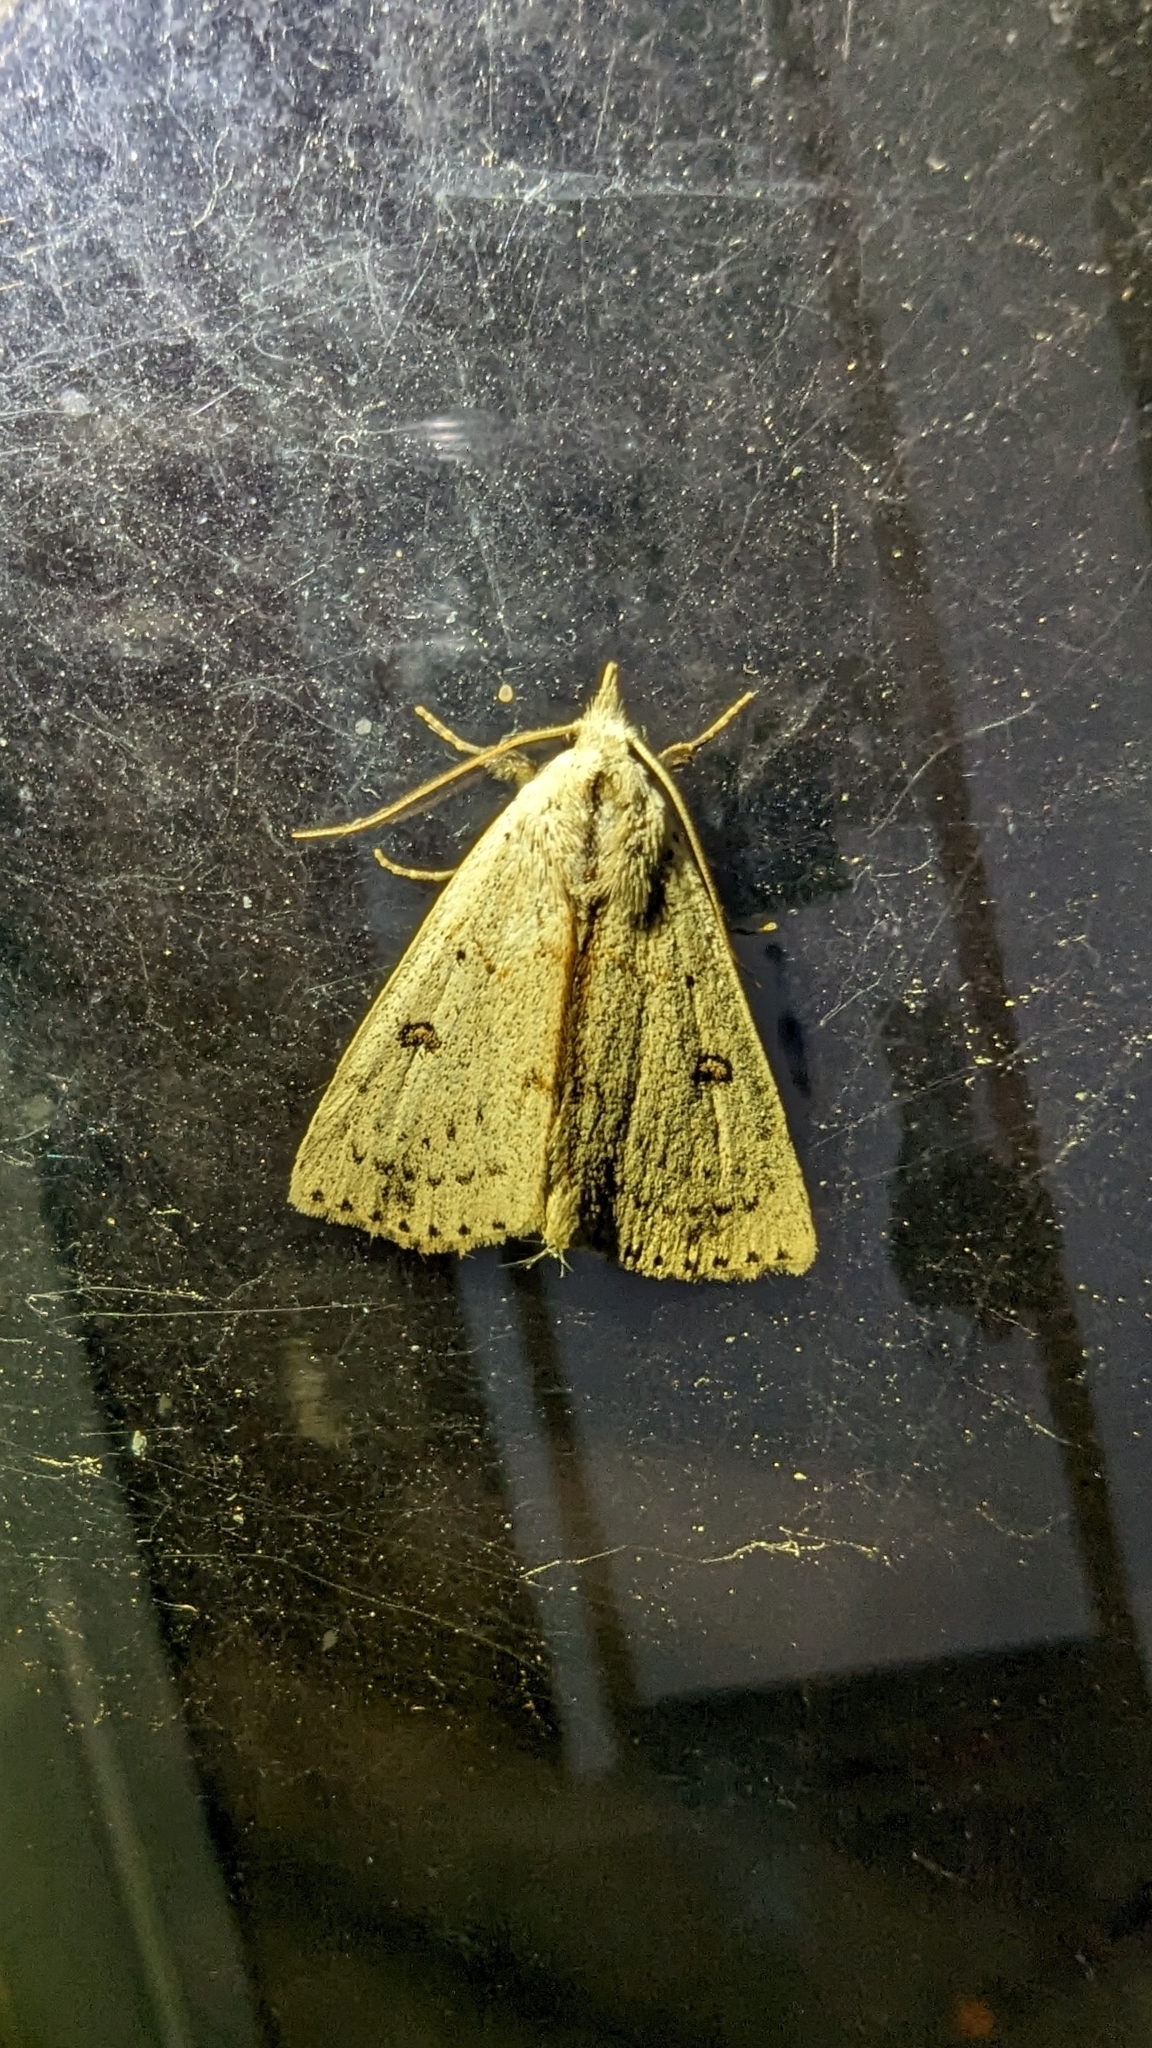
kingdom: Animalia
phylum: Arthropoda
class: Insecta
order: Lepidoptera
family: Erebidae
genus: Scolecocampa
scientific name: Scolecocampa liburna
